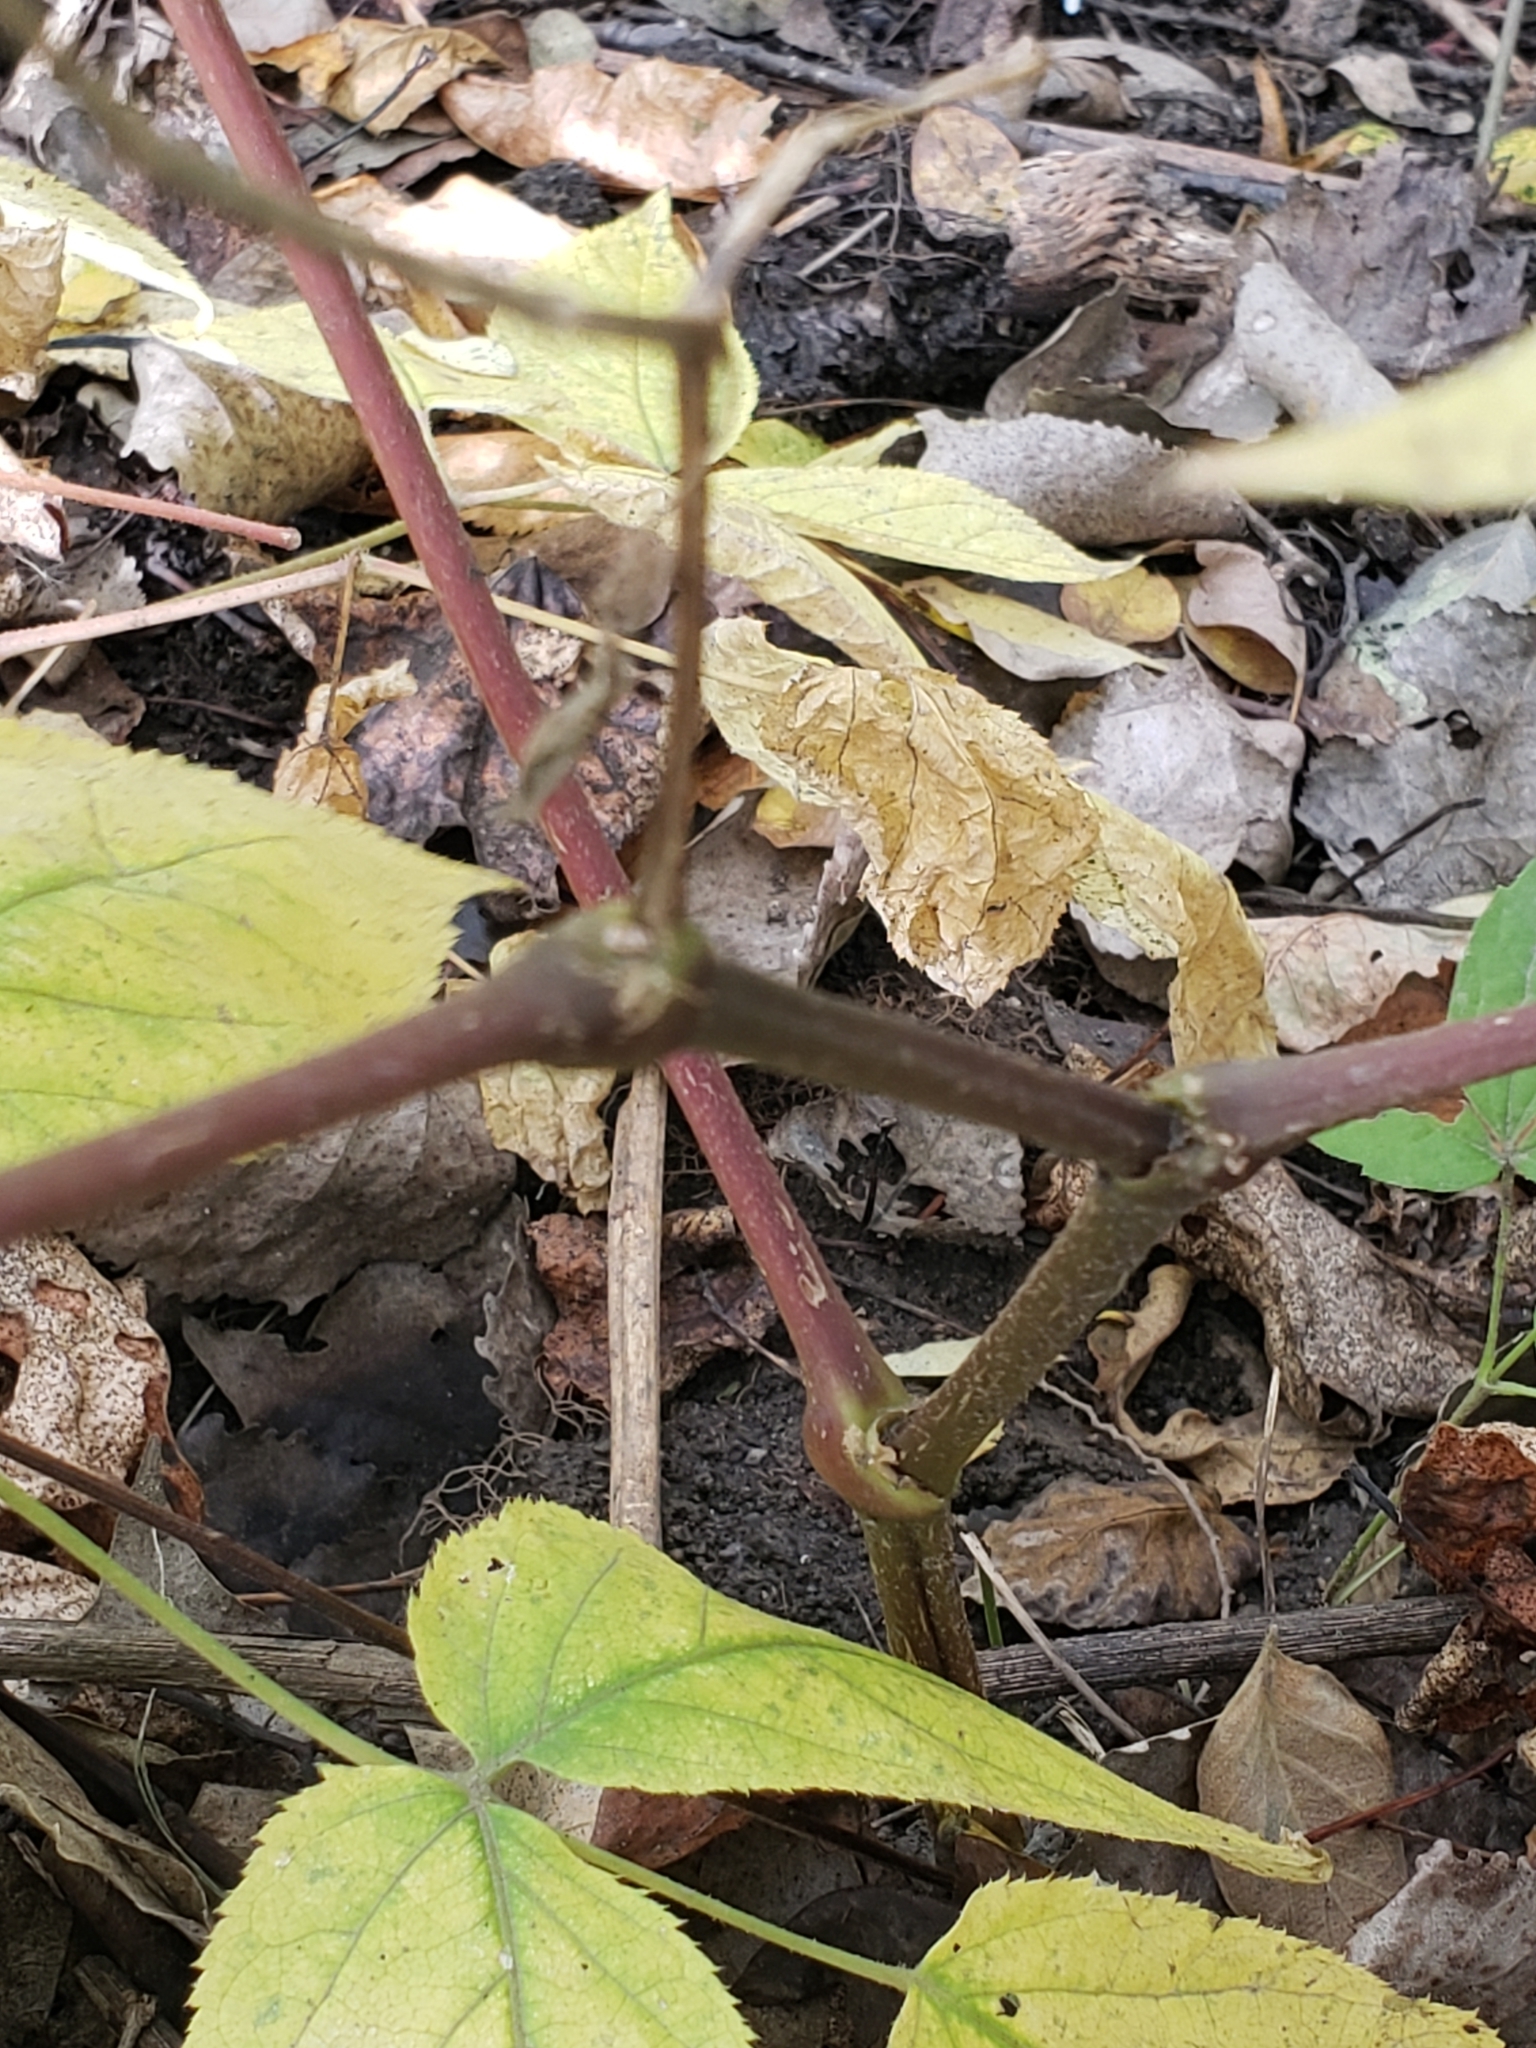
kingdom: Plantae
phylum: Tracheophyta
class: Magnoliopsida
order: Apiales
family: Araliaceae
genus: Aralia
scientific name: Aralia racemosa
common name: American-spikenard
